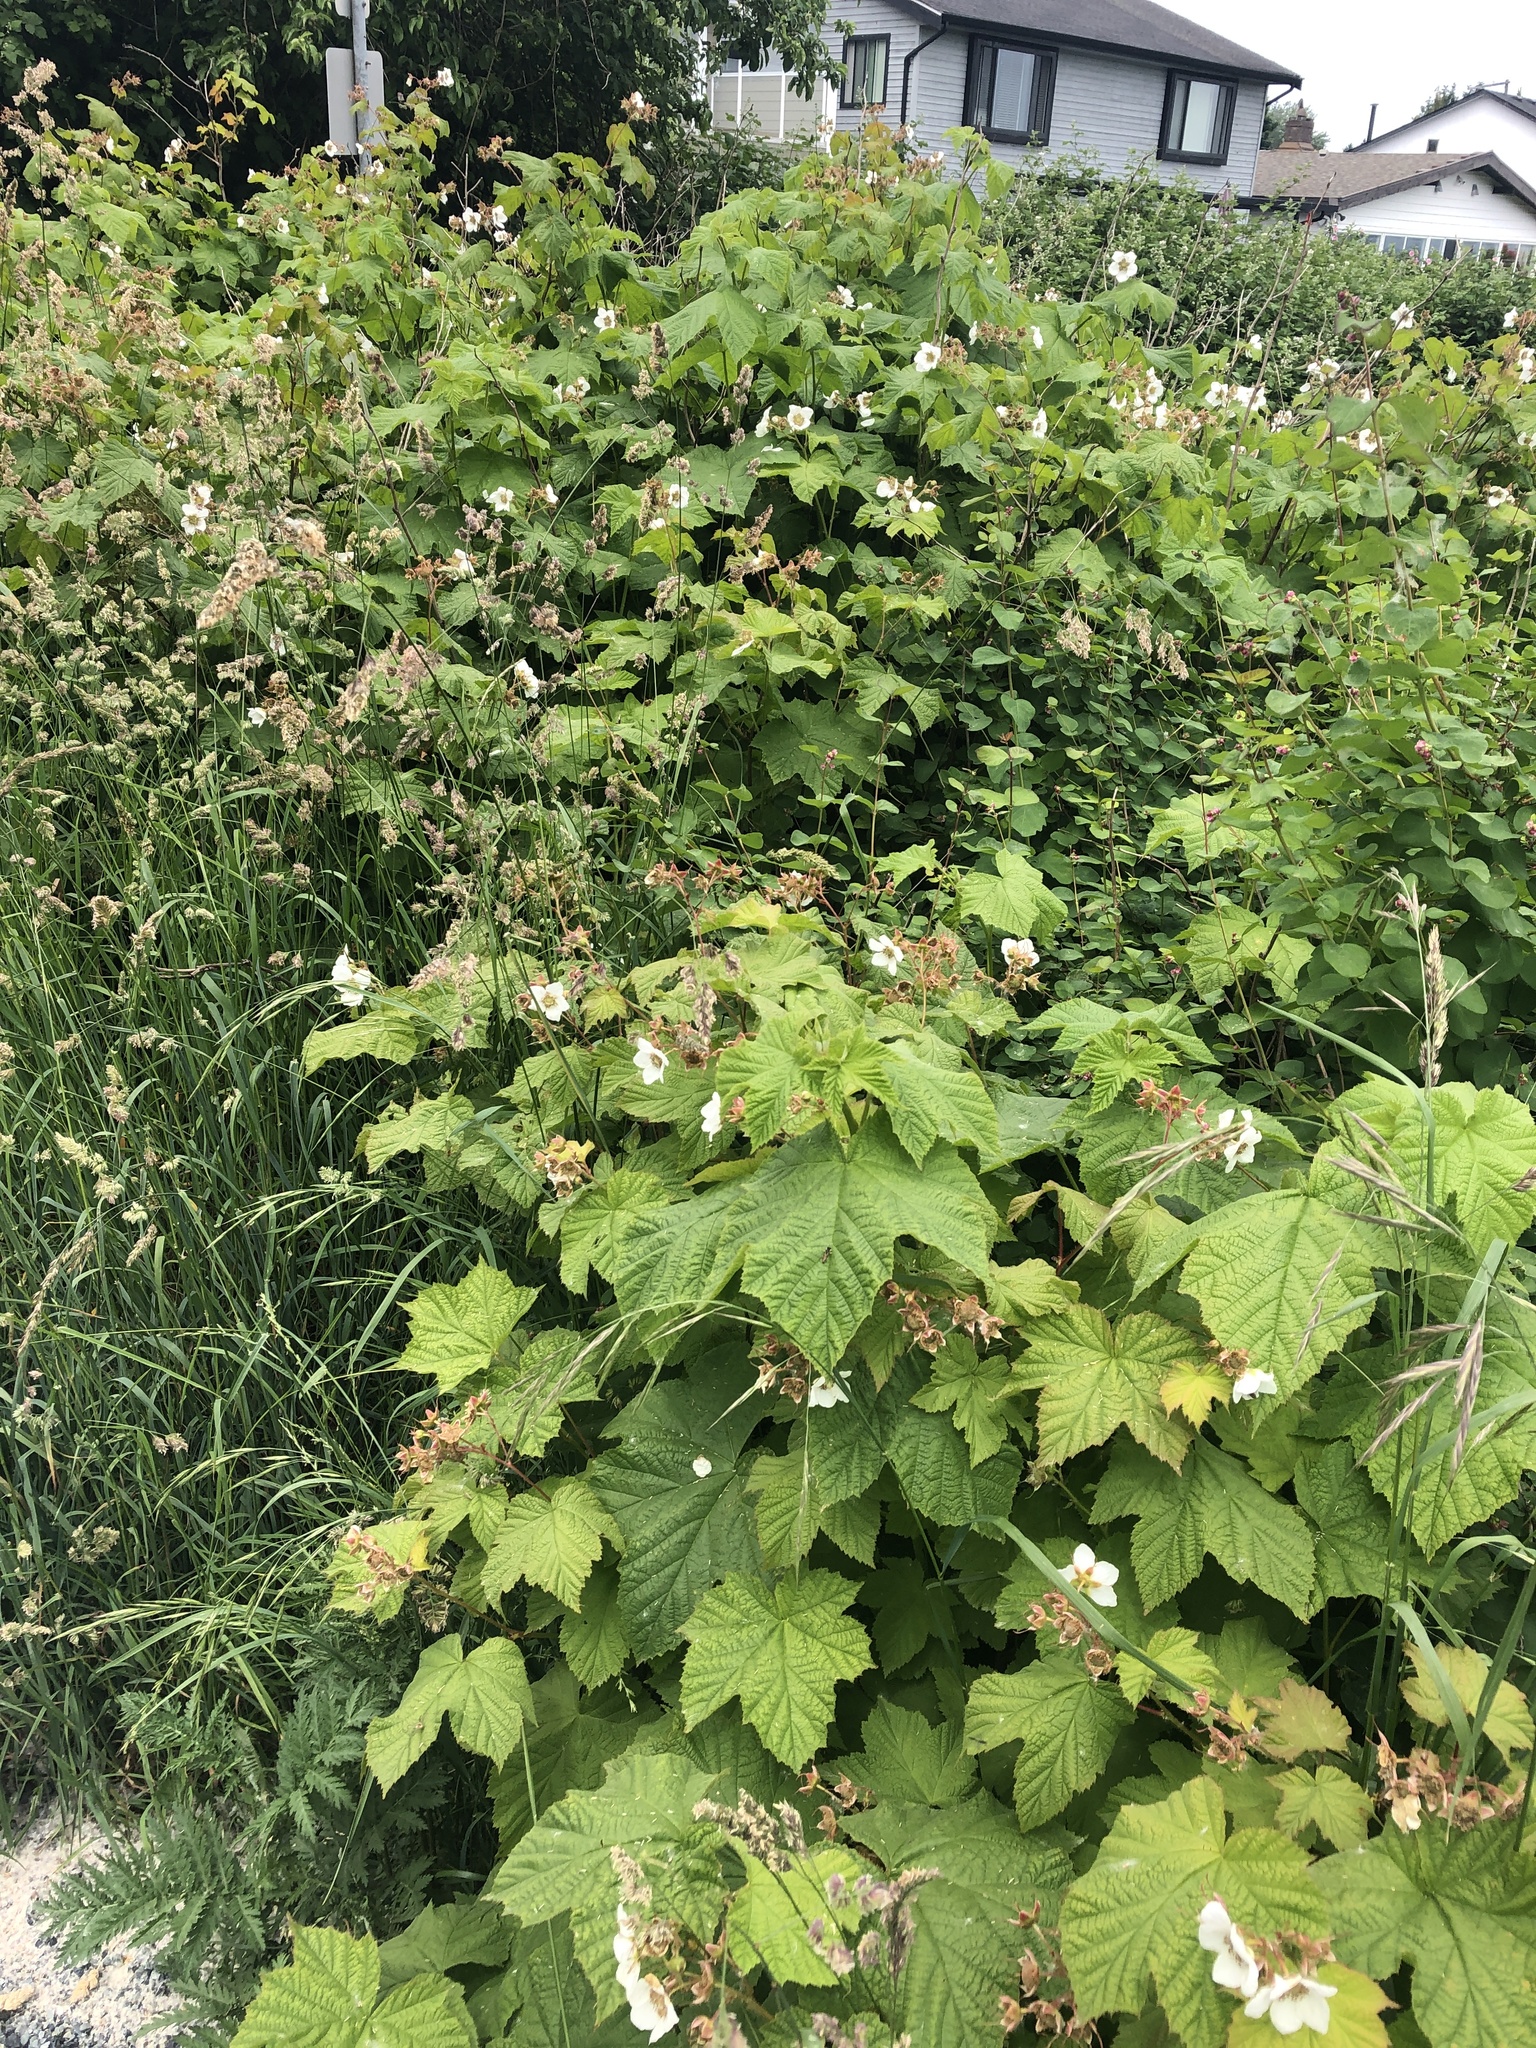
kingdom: Plantae
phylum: Tracheophyta
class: Magnoliopsida
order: Rosales
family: Rosaceae
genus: Rubus
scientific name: Rubus parviflorus
